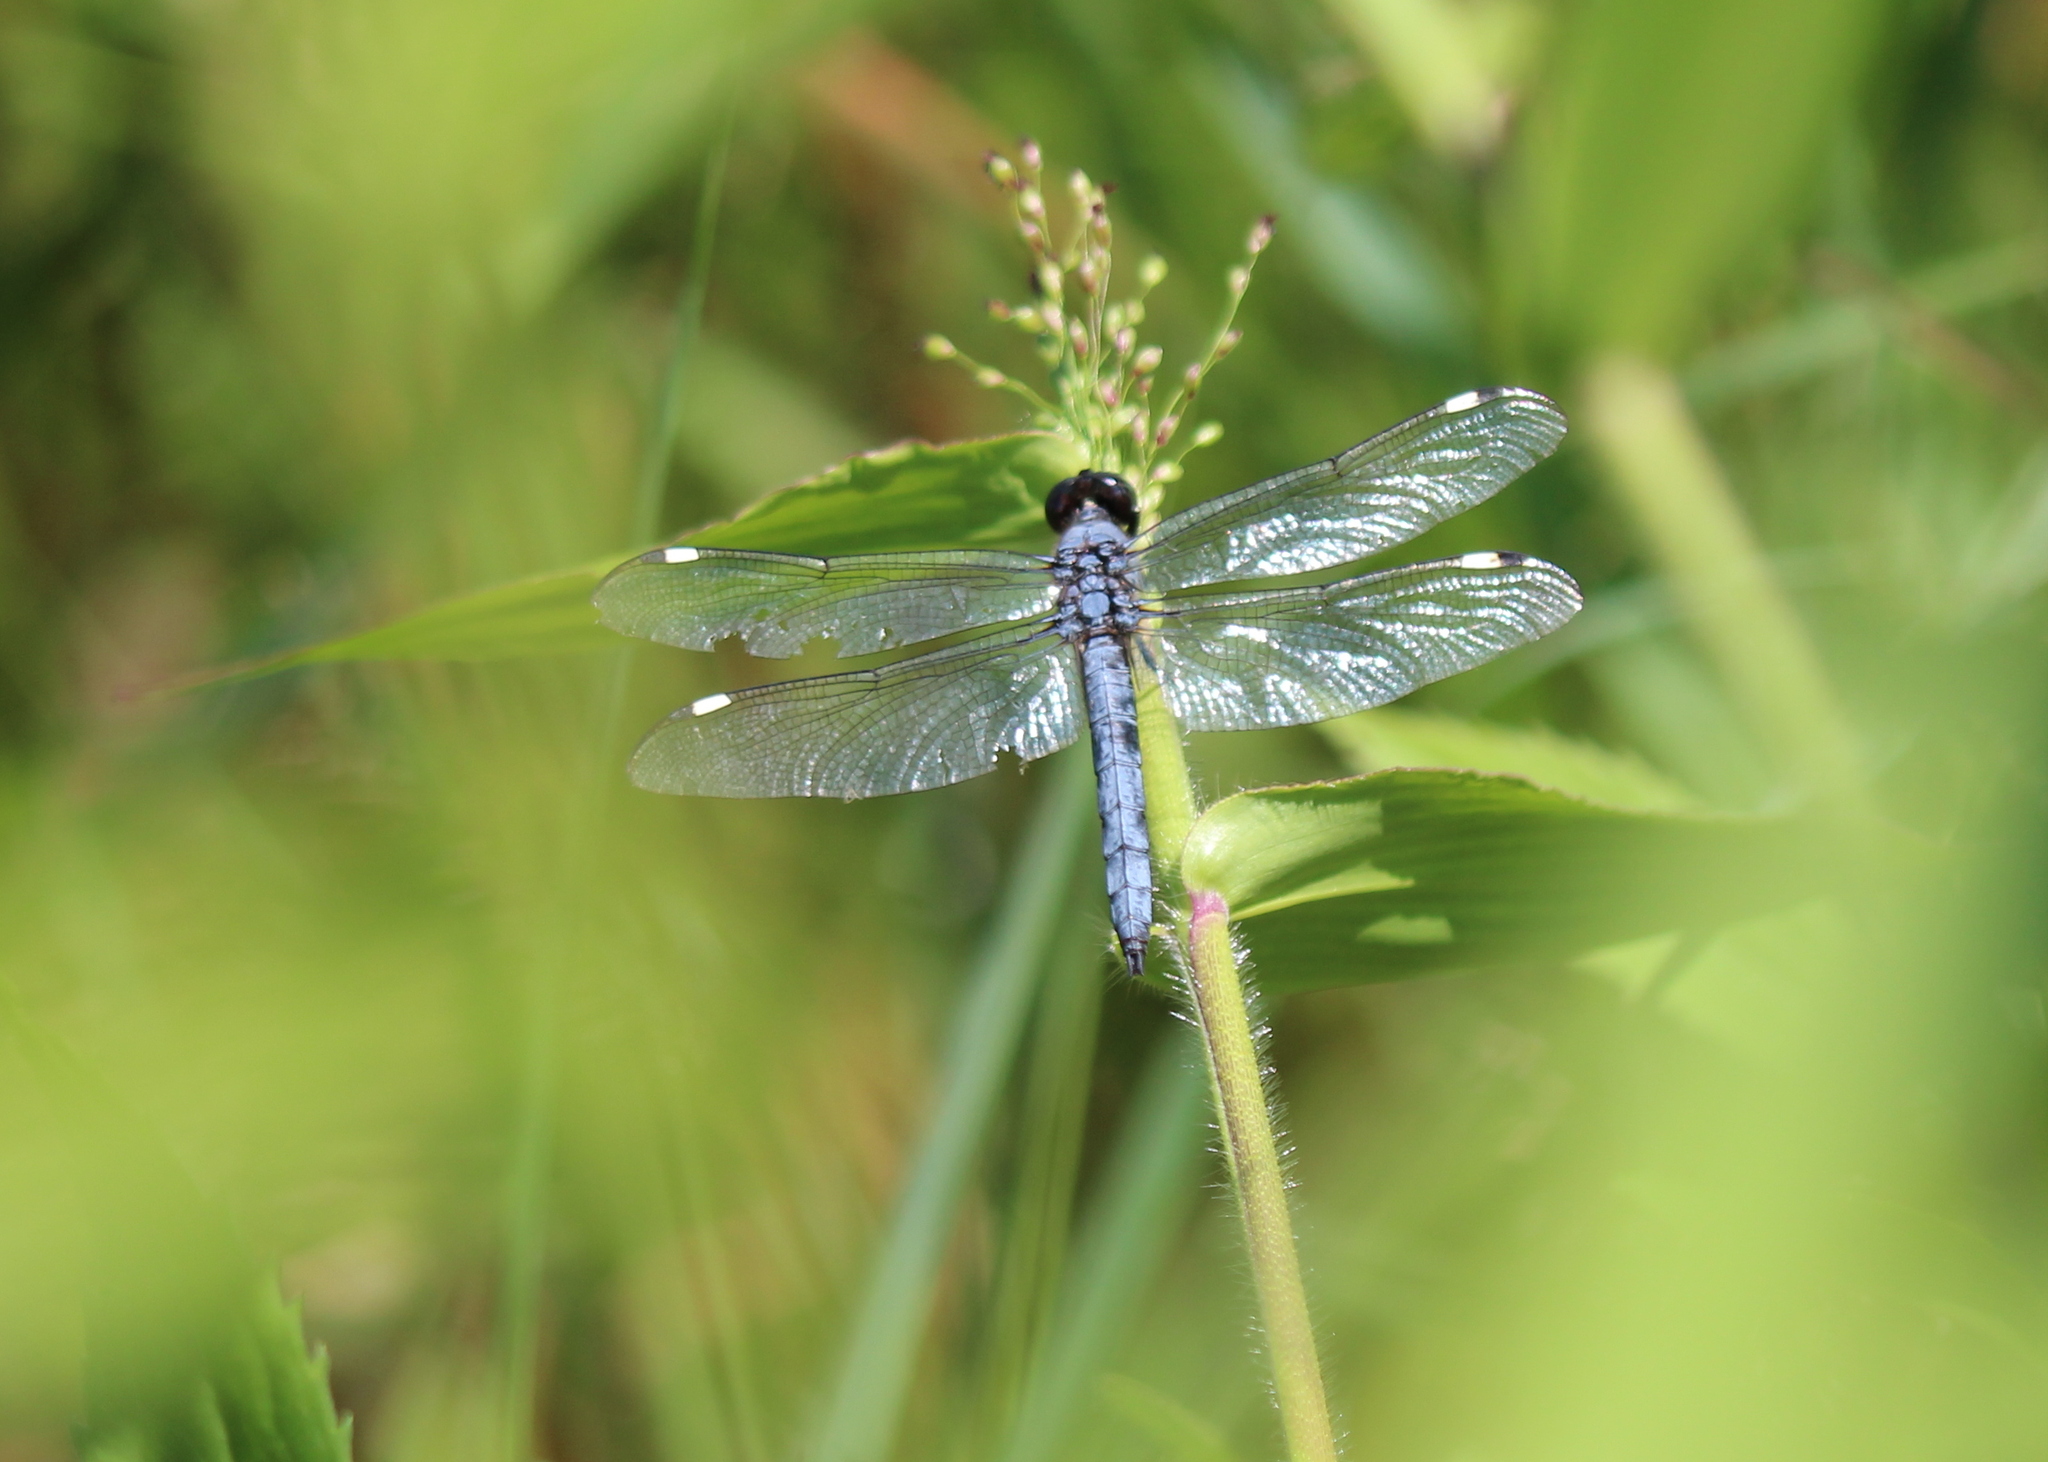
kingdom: Animalia
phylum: Arthropoda
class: Insecta
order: Odonata
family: Libellulidae
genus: Libellula
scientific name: Libellula cyanea
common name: Spangled skimmer
